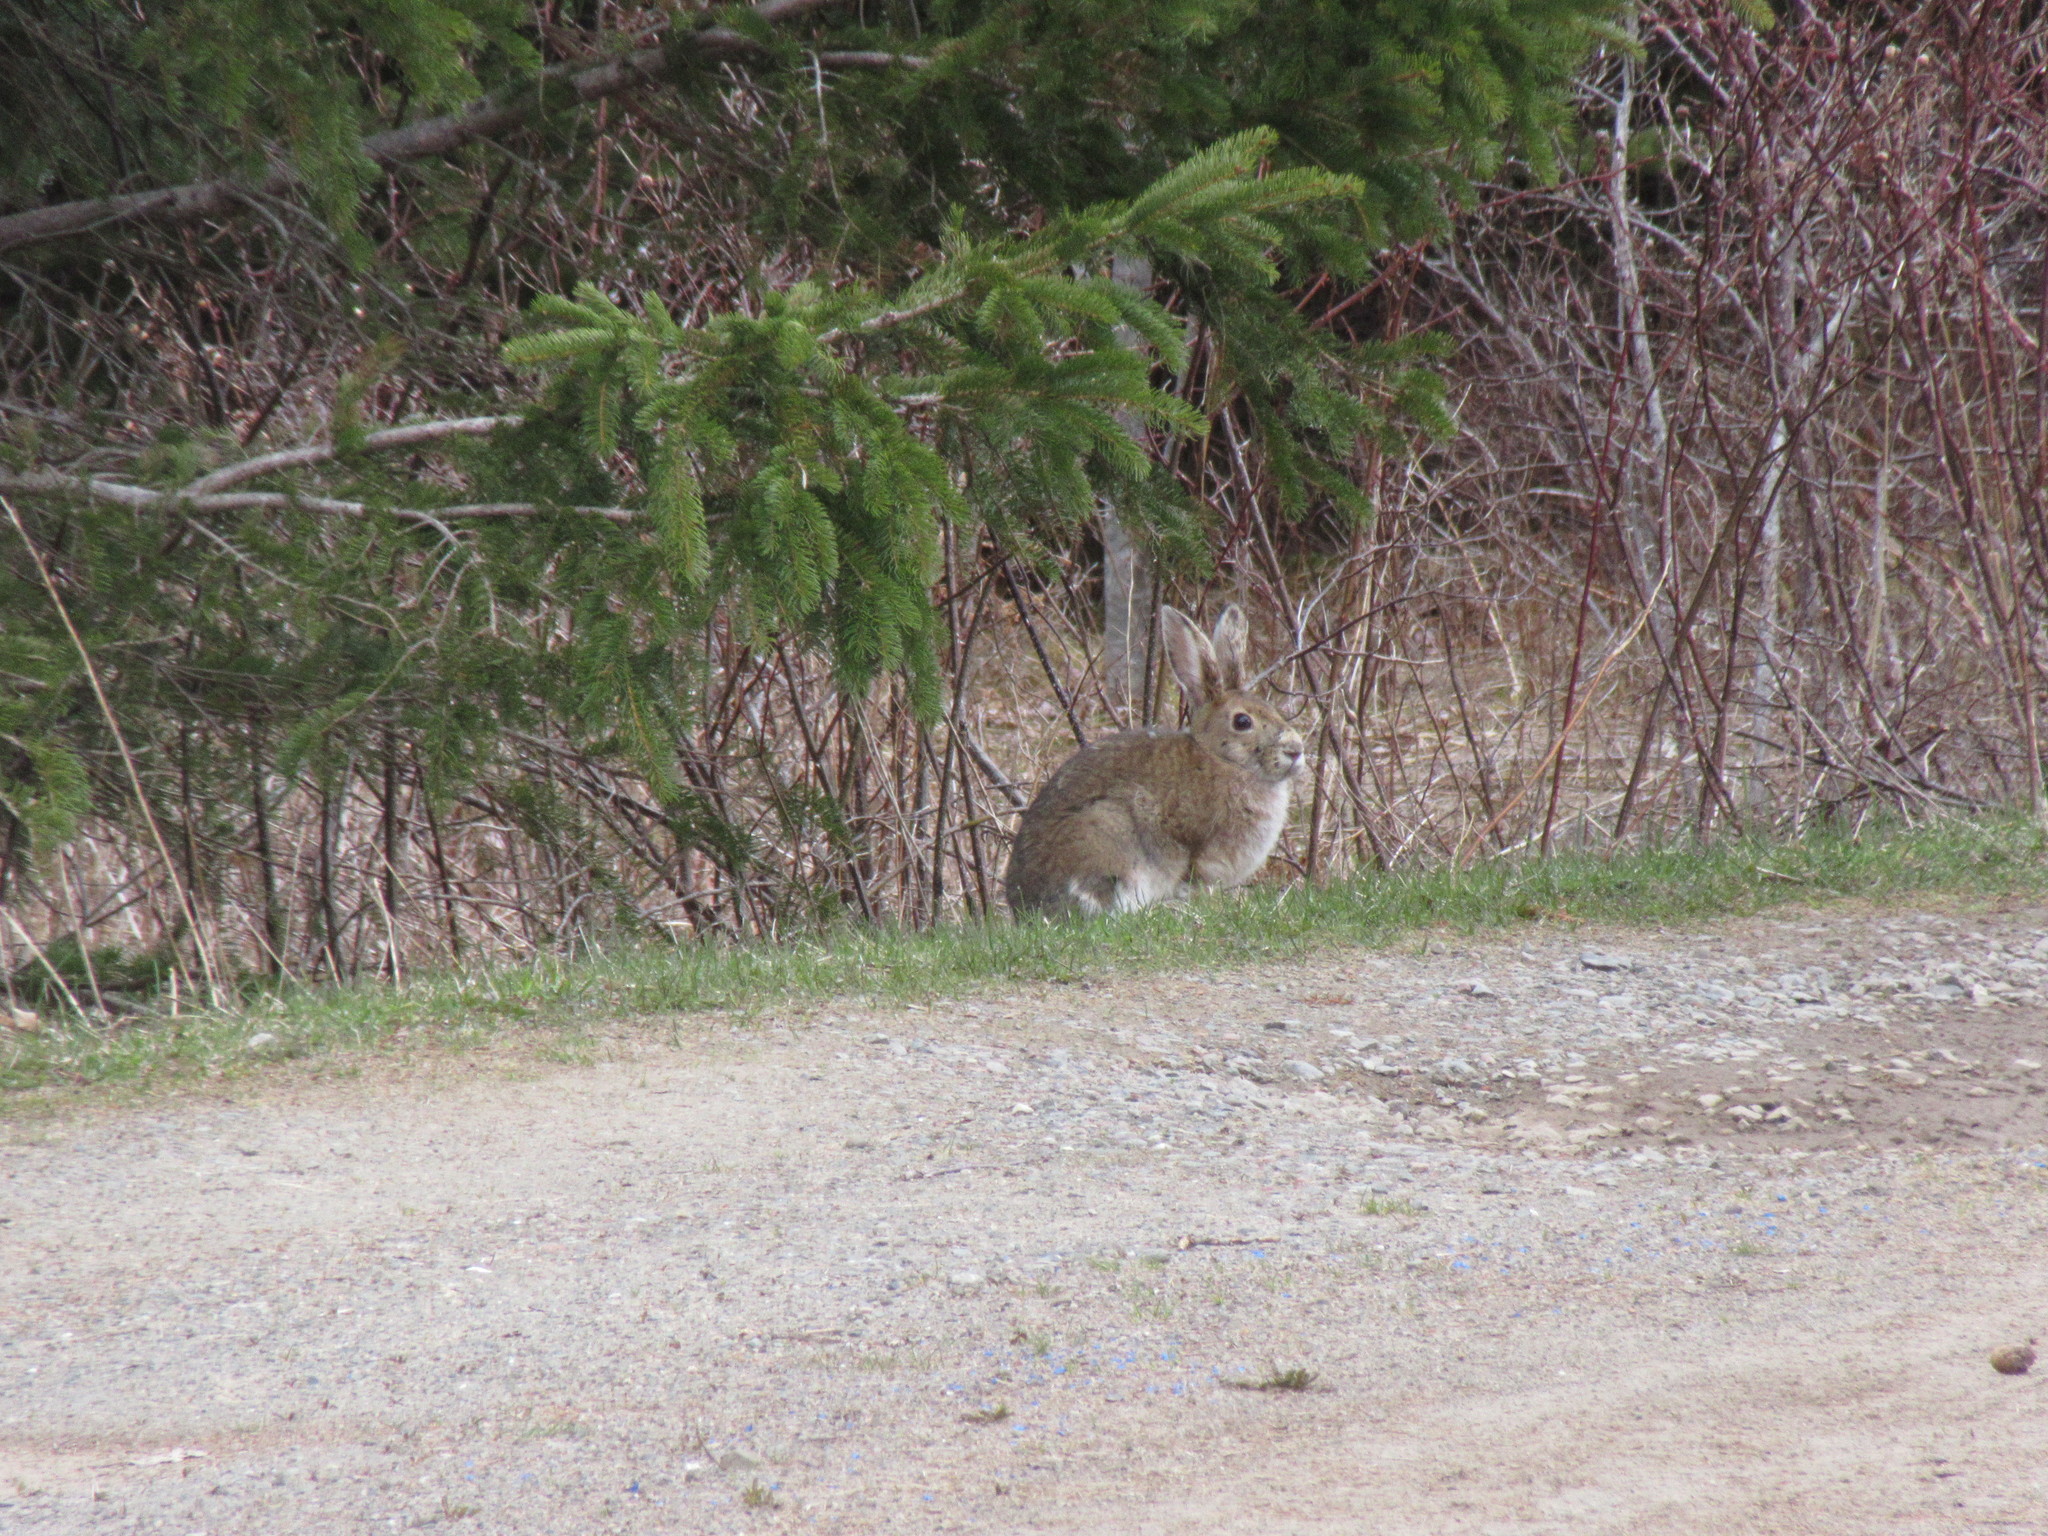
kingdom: Animalia
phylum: Chordata
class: Mammalia
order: Lagomorpha
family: Leporidae
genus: Lepus
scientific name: Lepus americanus
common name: Snowshoe hare
